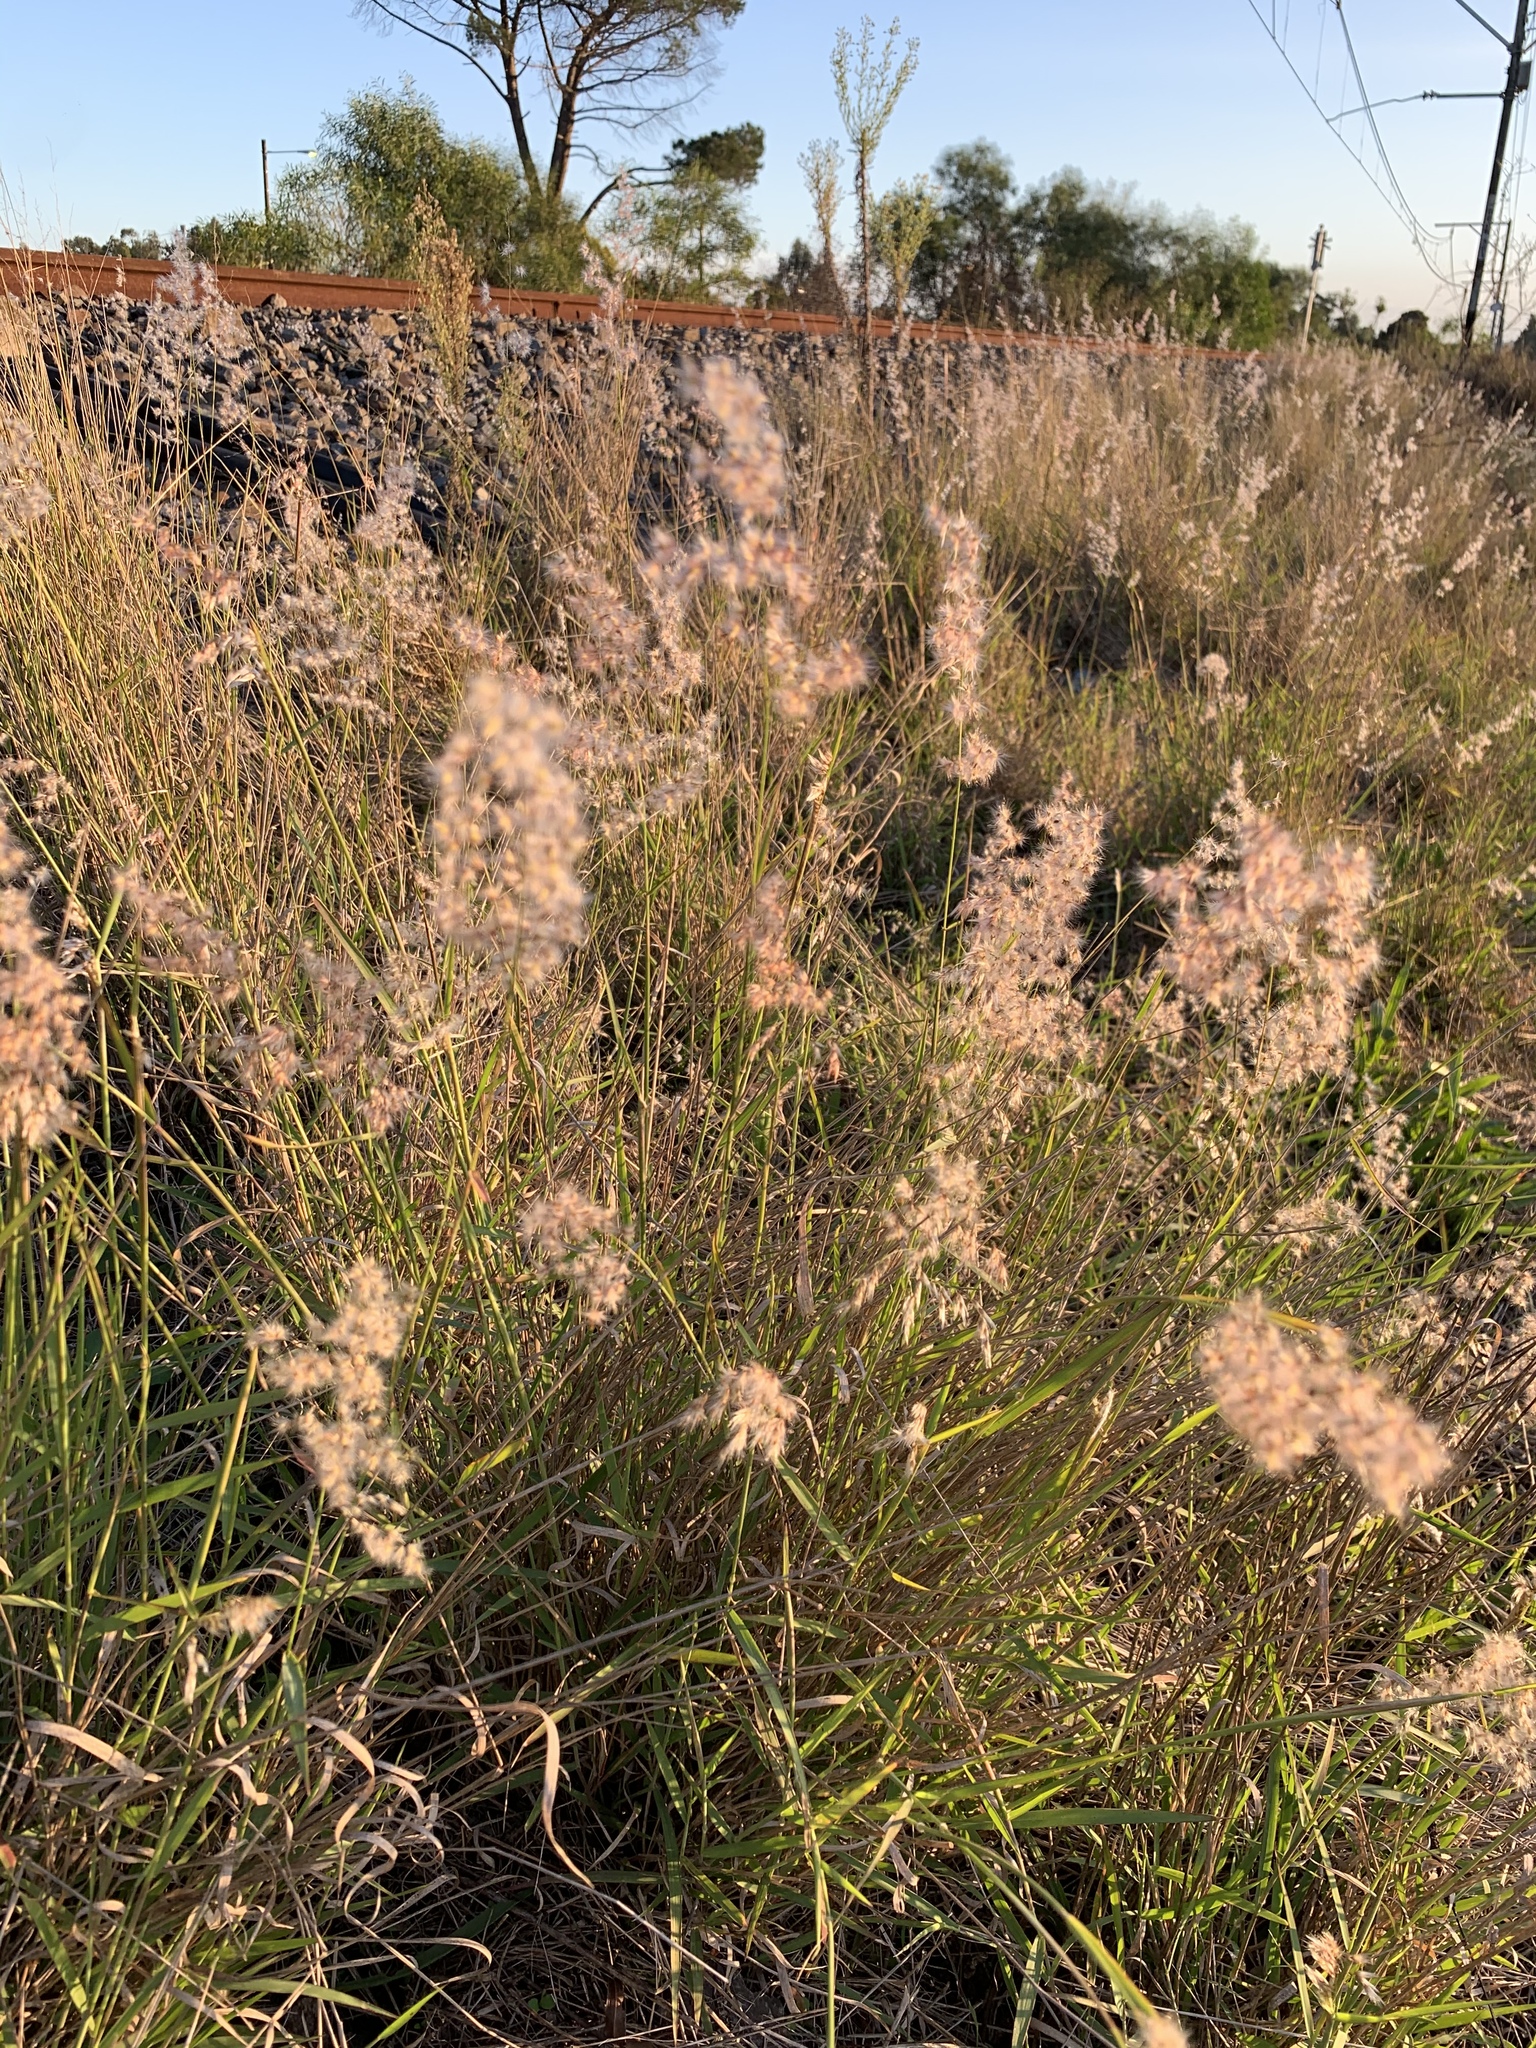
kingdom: Plantae
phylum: Tracheophyta
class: Liliopsida
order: Poales
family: Poaceae
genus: Melinis
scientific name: Melinis repens
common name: Rose natal grass
